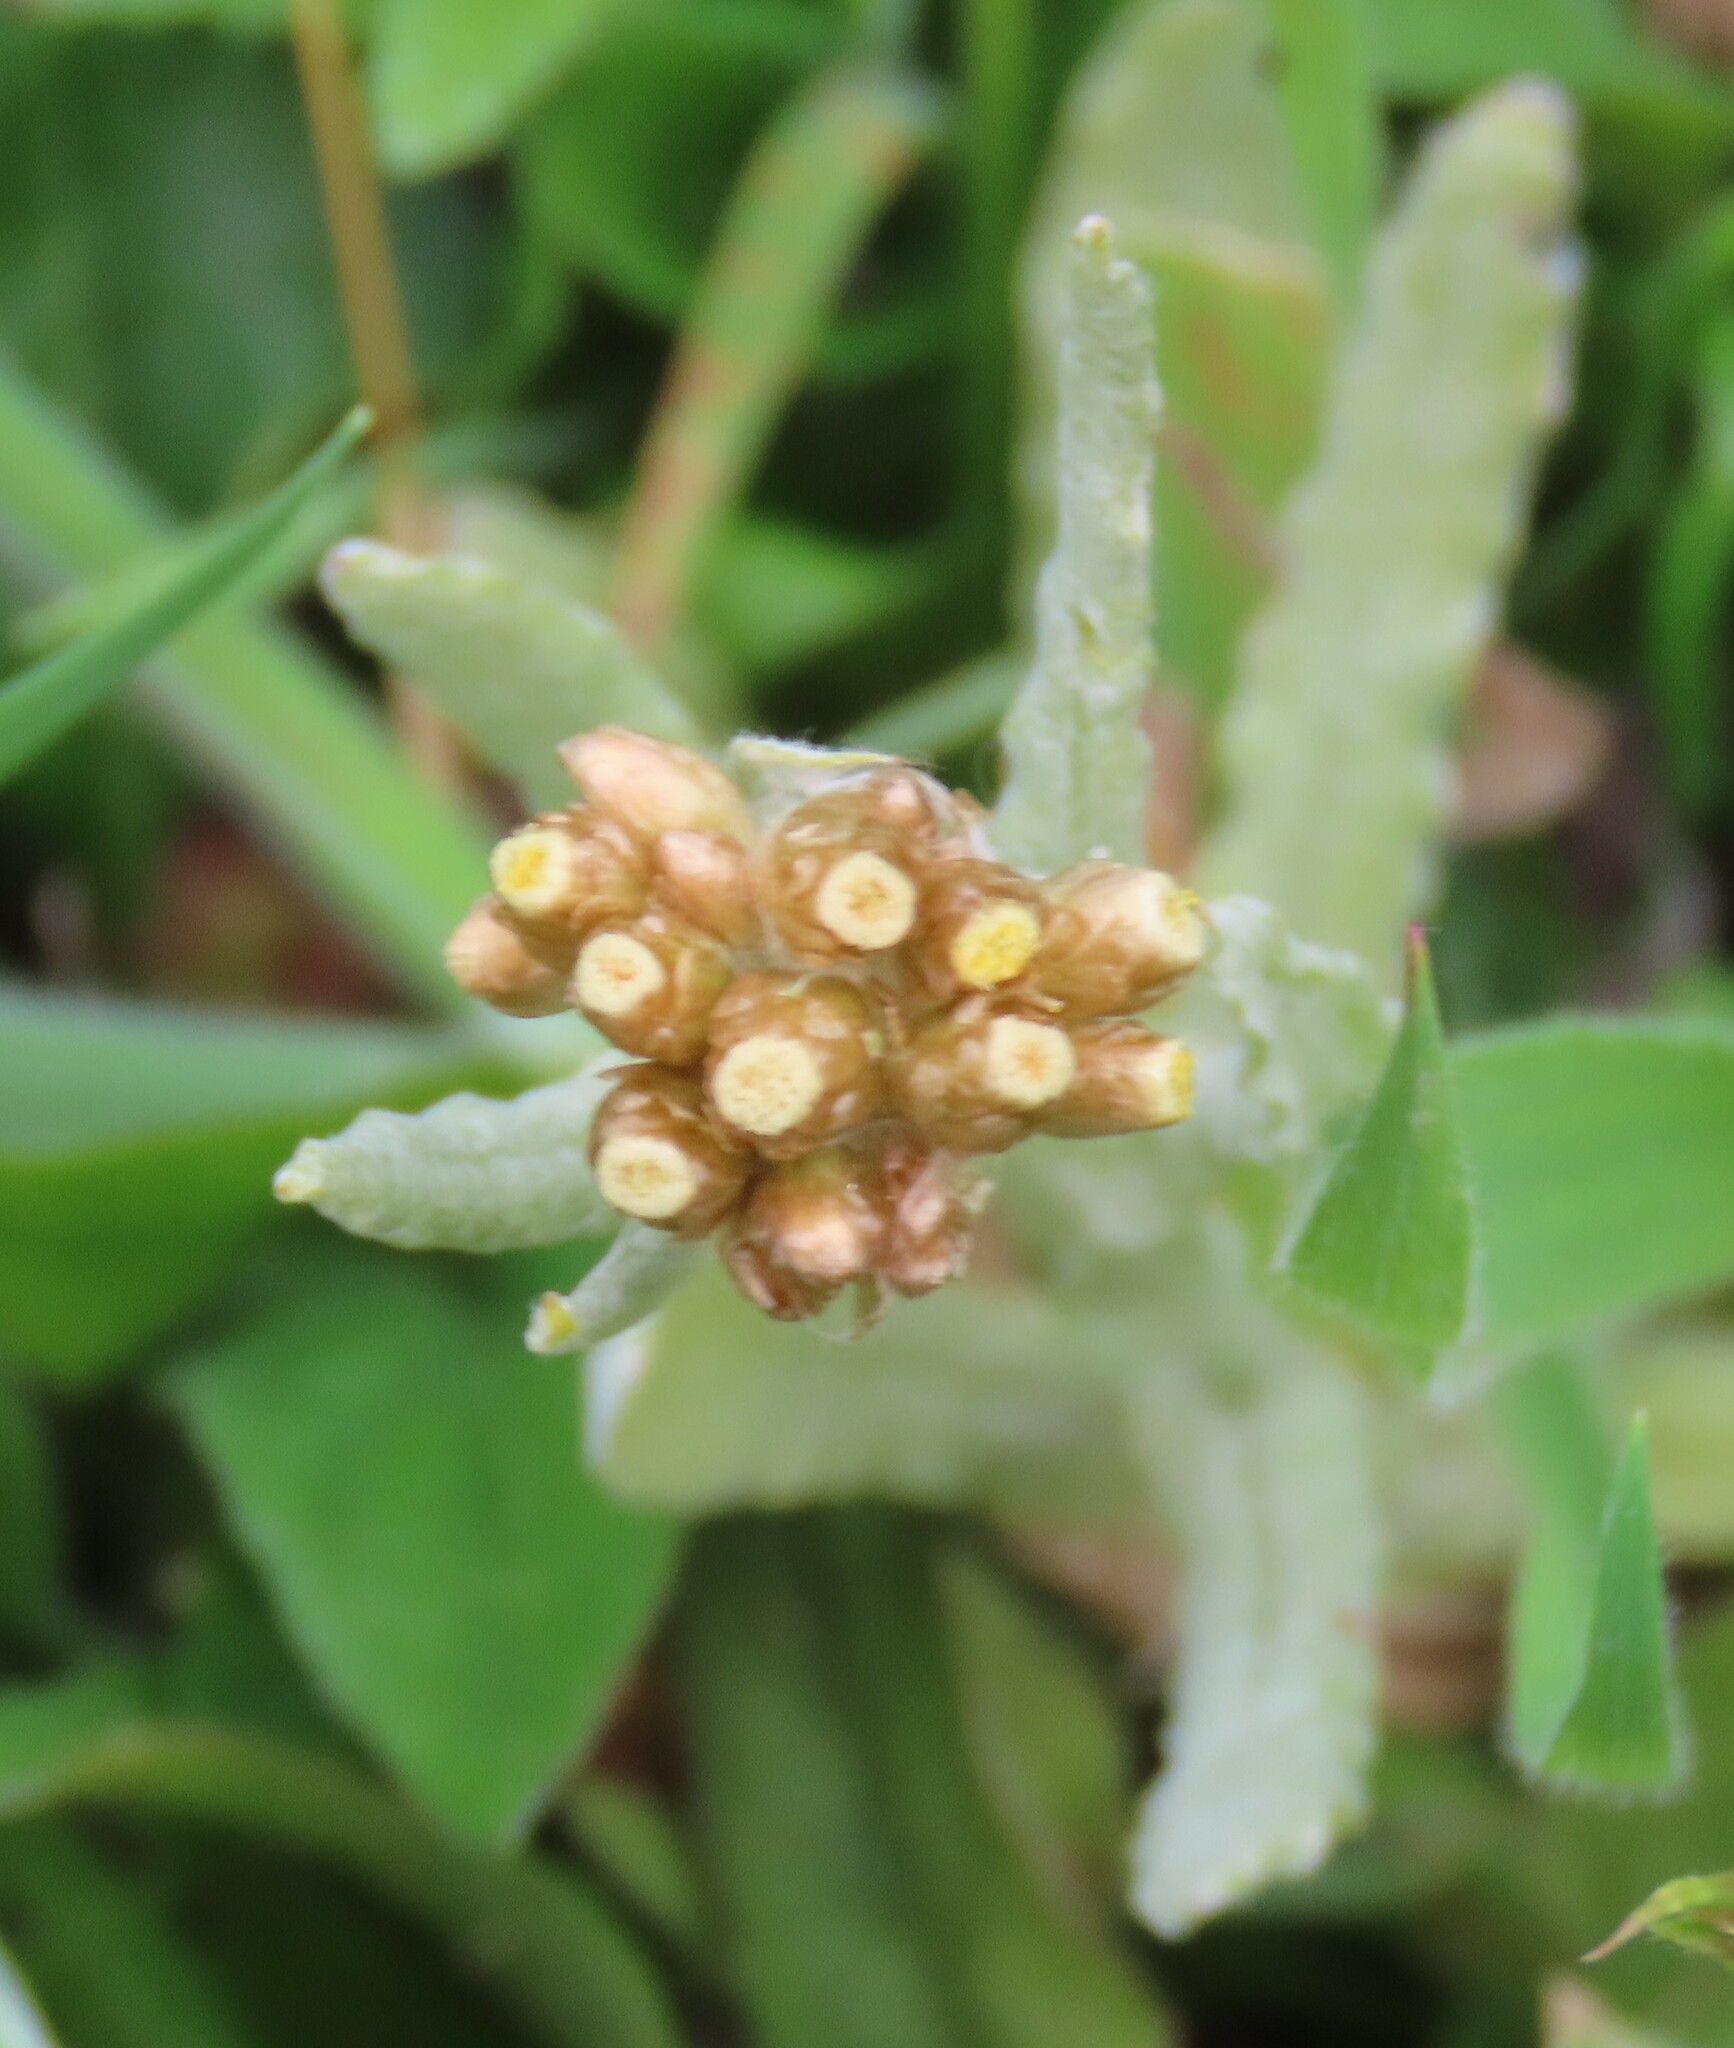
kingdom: Plantae
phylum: Tracheophyta
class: Magnoliopsida
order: Asterales
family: Asteraceae
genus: Pseudognaphalium
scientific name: Pseudognaphalium
